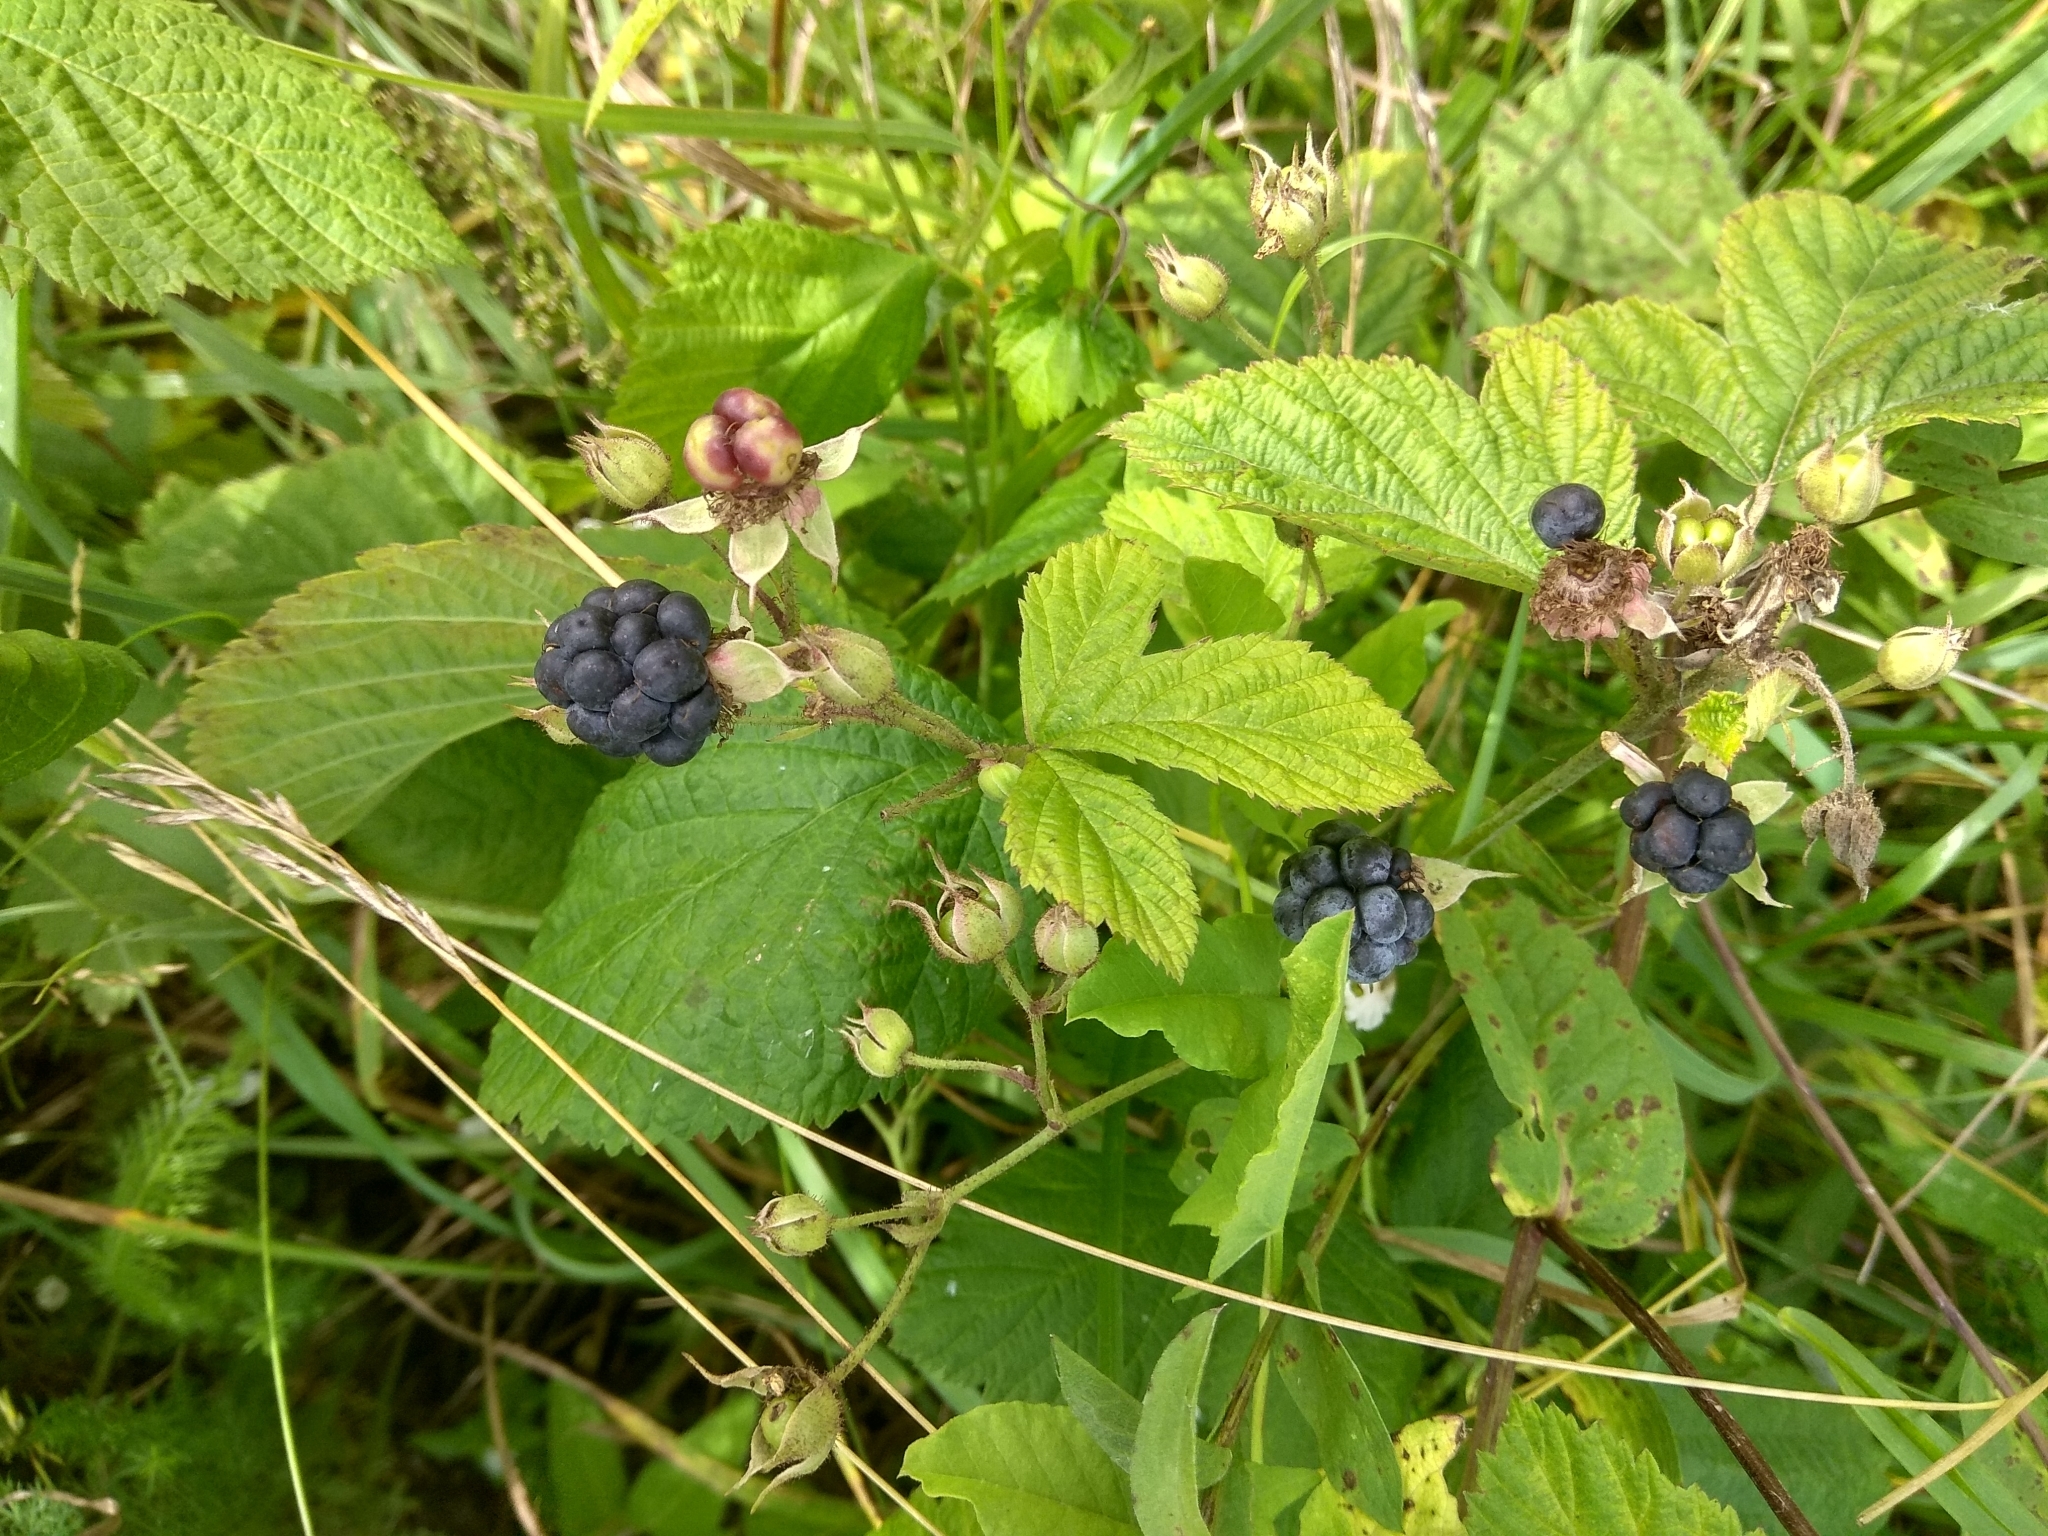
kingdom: Plantae
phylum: Tracheophyta
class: Magnoliopsida
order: Rosales
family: Rosaceae
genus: Rubus
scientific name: Rubus caesius
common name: Dewberry
